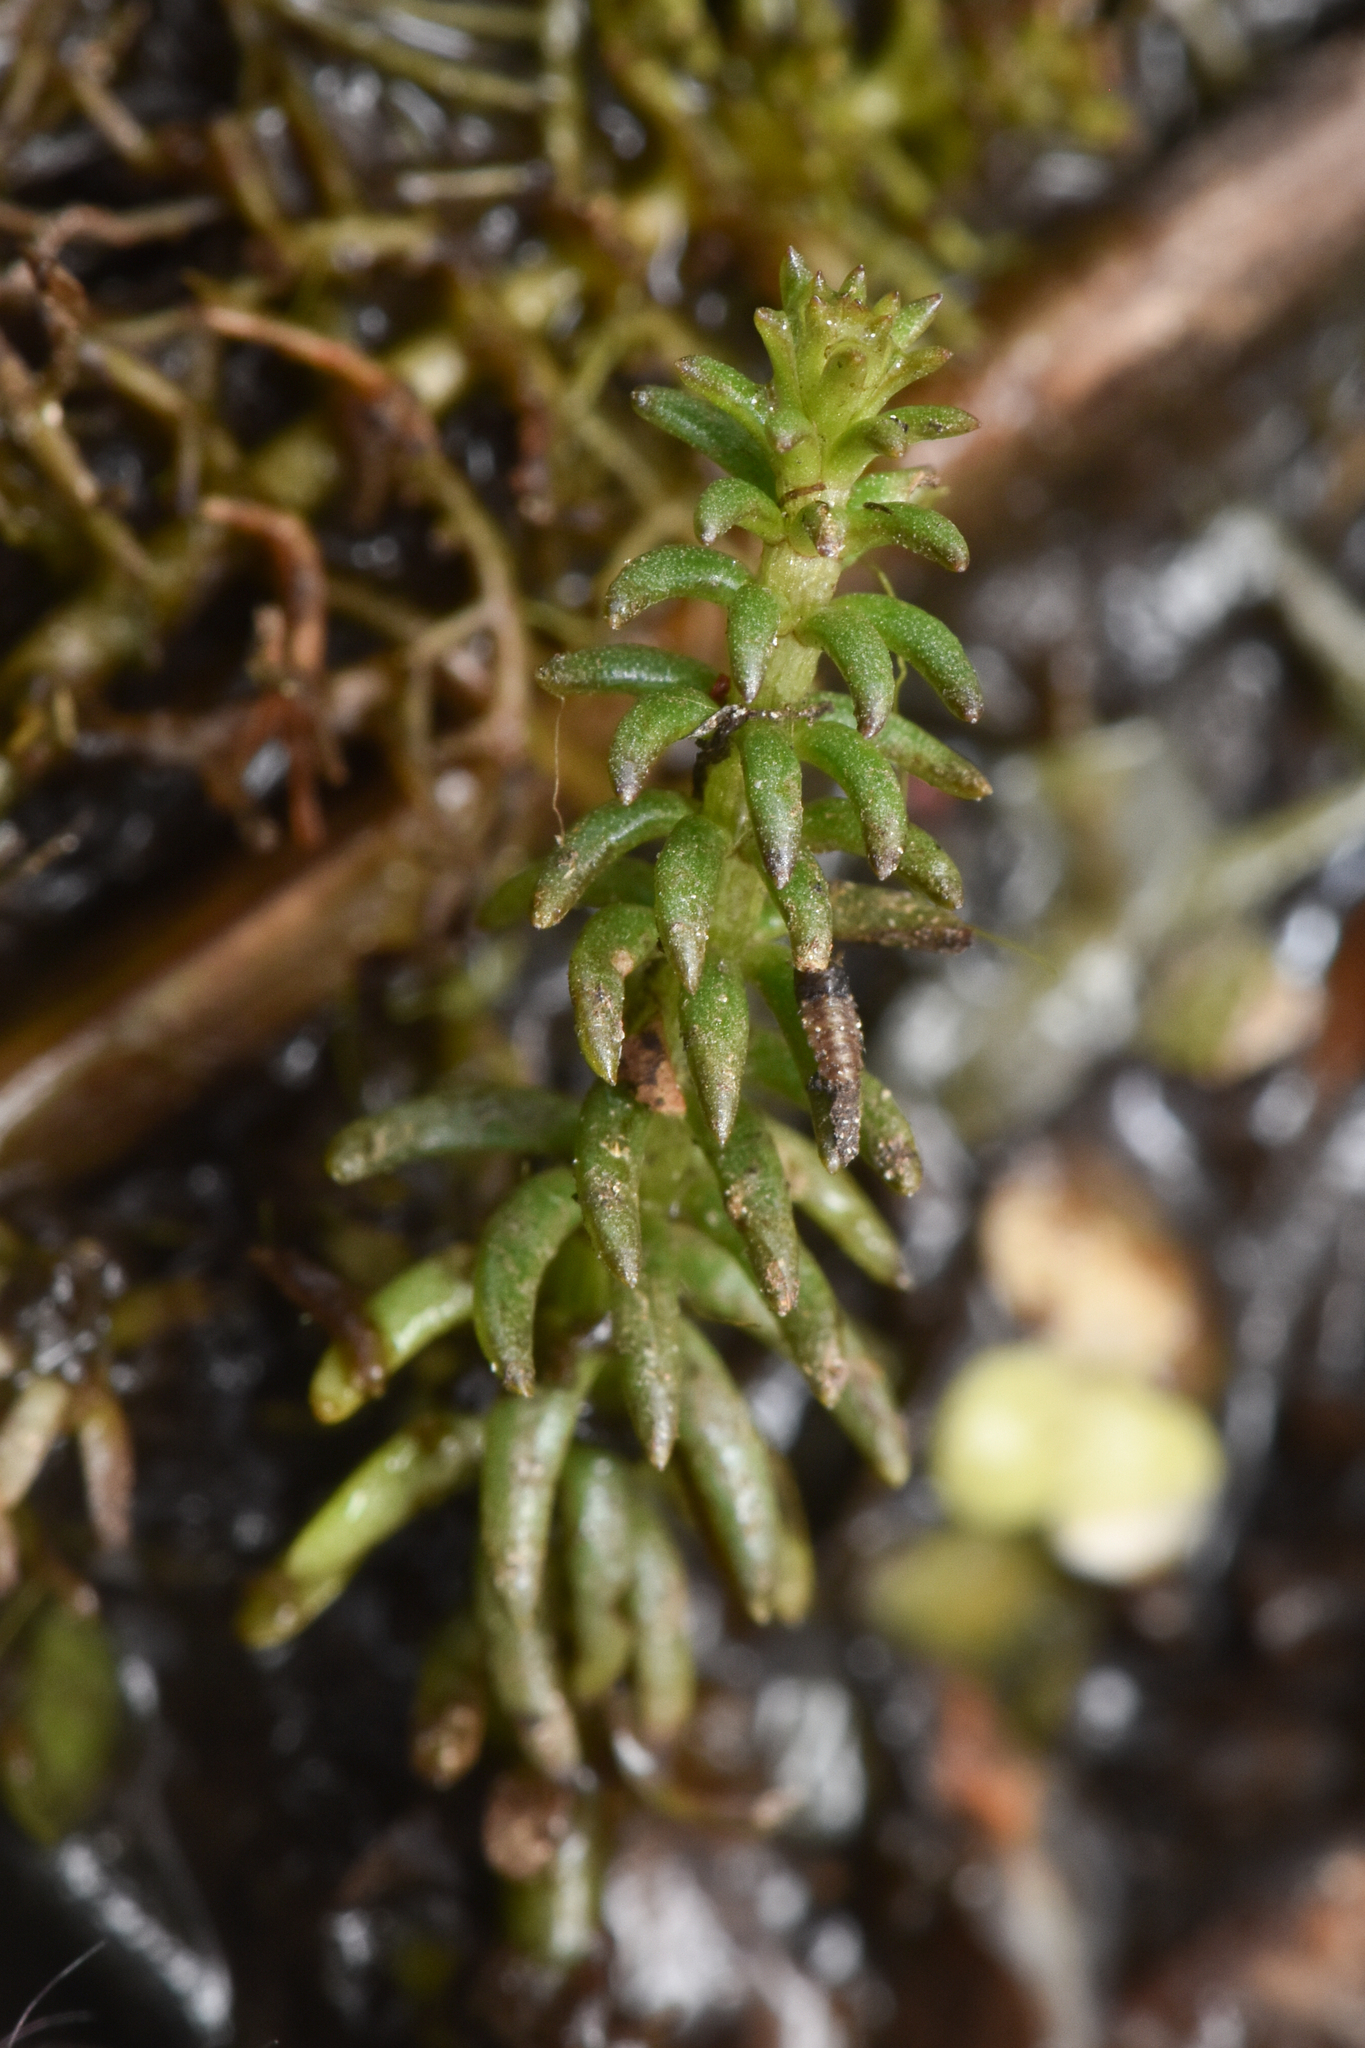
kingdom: Plantae
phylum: Tracheophyta
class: Magnoliopsida
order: Lamiales
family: Plantaginaceae
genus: Hippuris
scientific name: Hippuris vulgaris
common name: Mare's-tail
